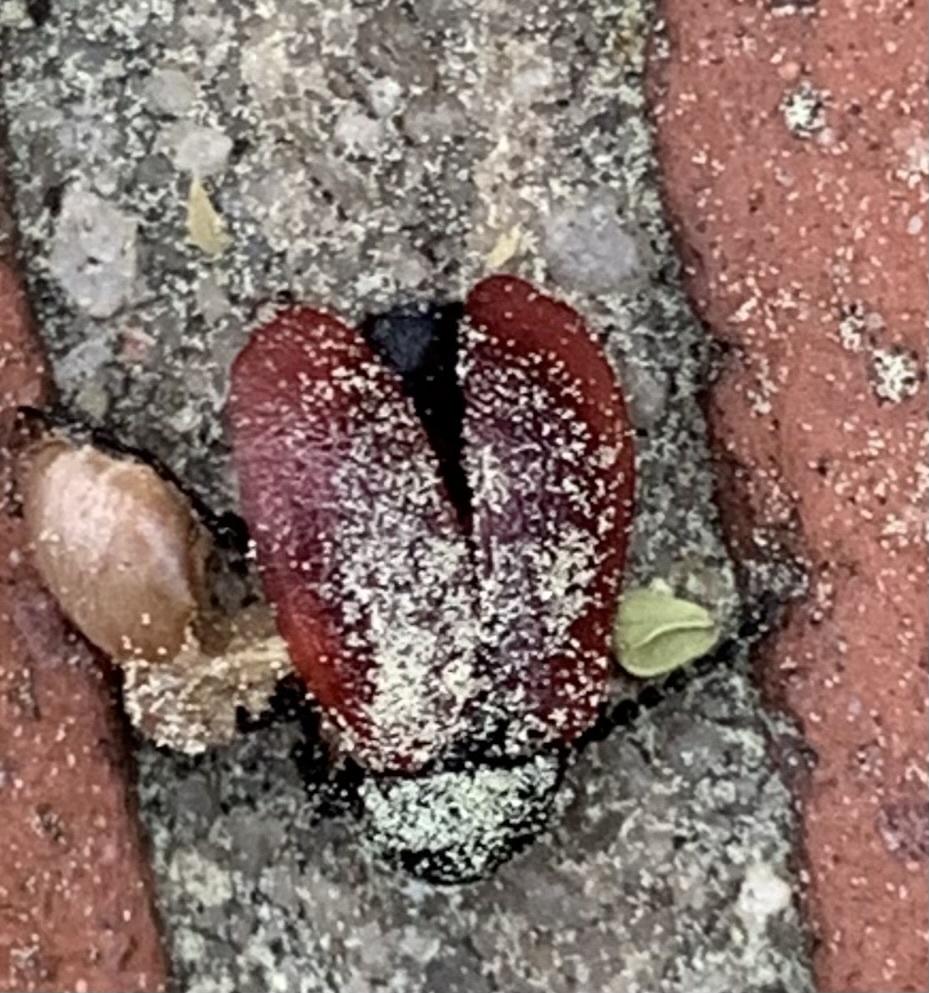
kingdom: Animalia
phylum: Arthropoda
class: Insecta
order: Coleoptera
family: Meloidae
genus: Tricrania
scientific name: Tricrania sanguinipennis
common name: Blood-winged blister beetle
